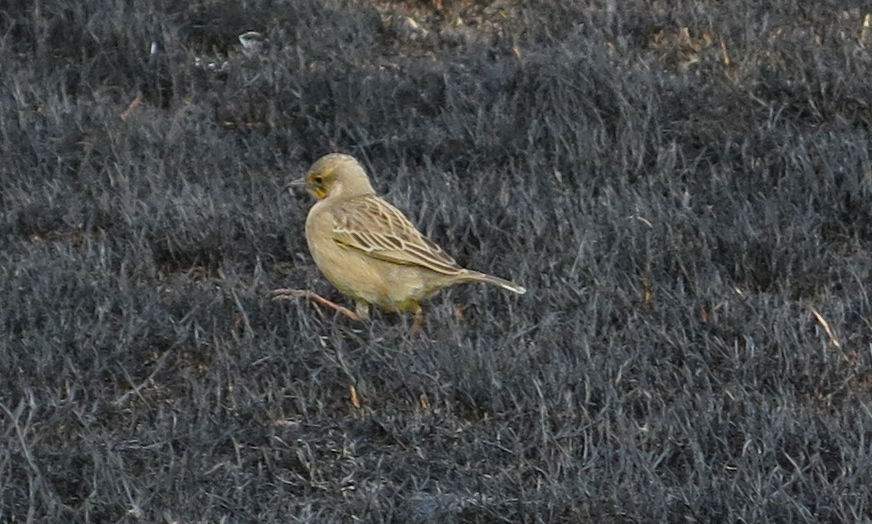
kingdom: Animalia
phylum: Chordata
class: Aves
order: Passeriformes
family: Motacillidae
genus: Macronyx
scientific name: Macronyx capensis
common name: Cape longclaw
